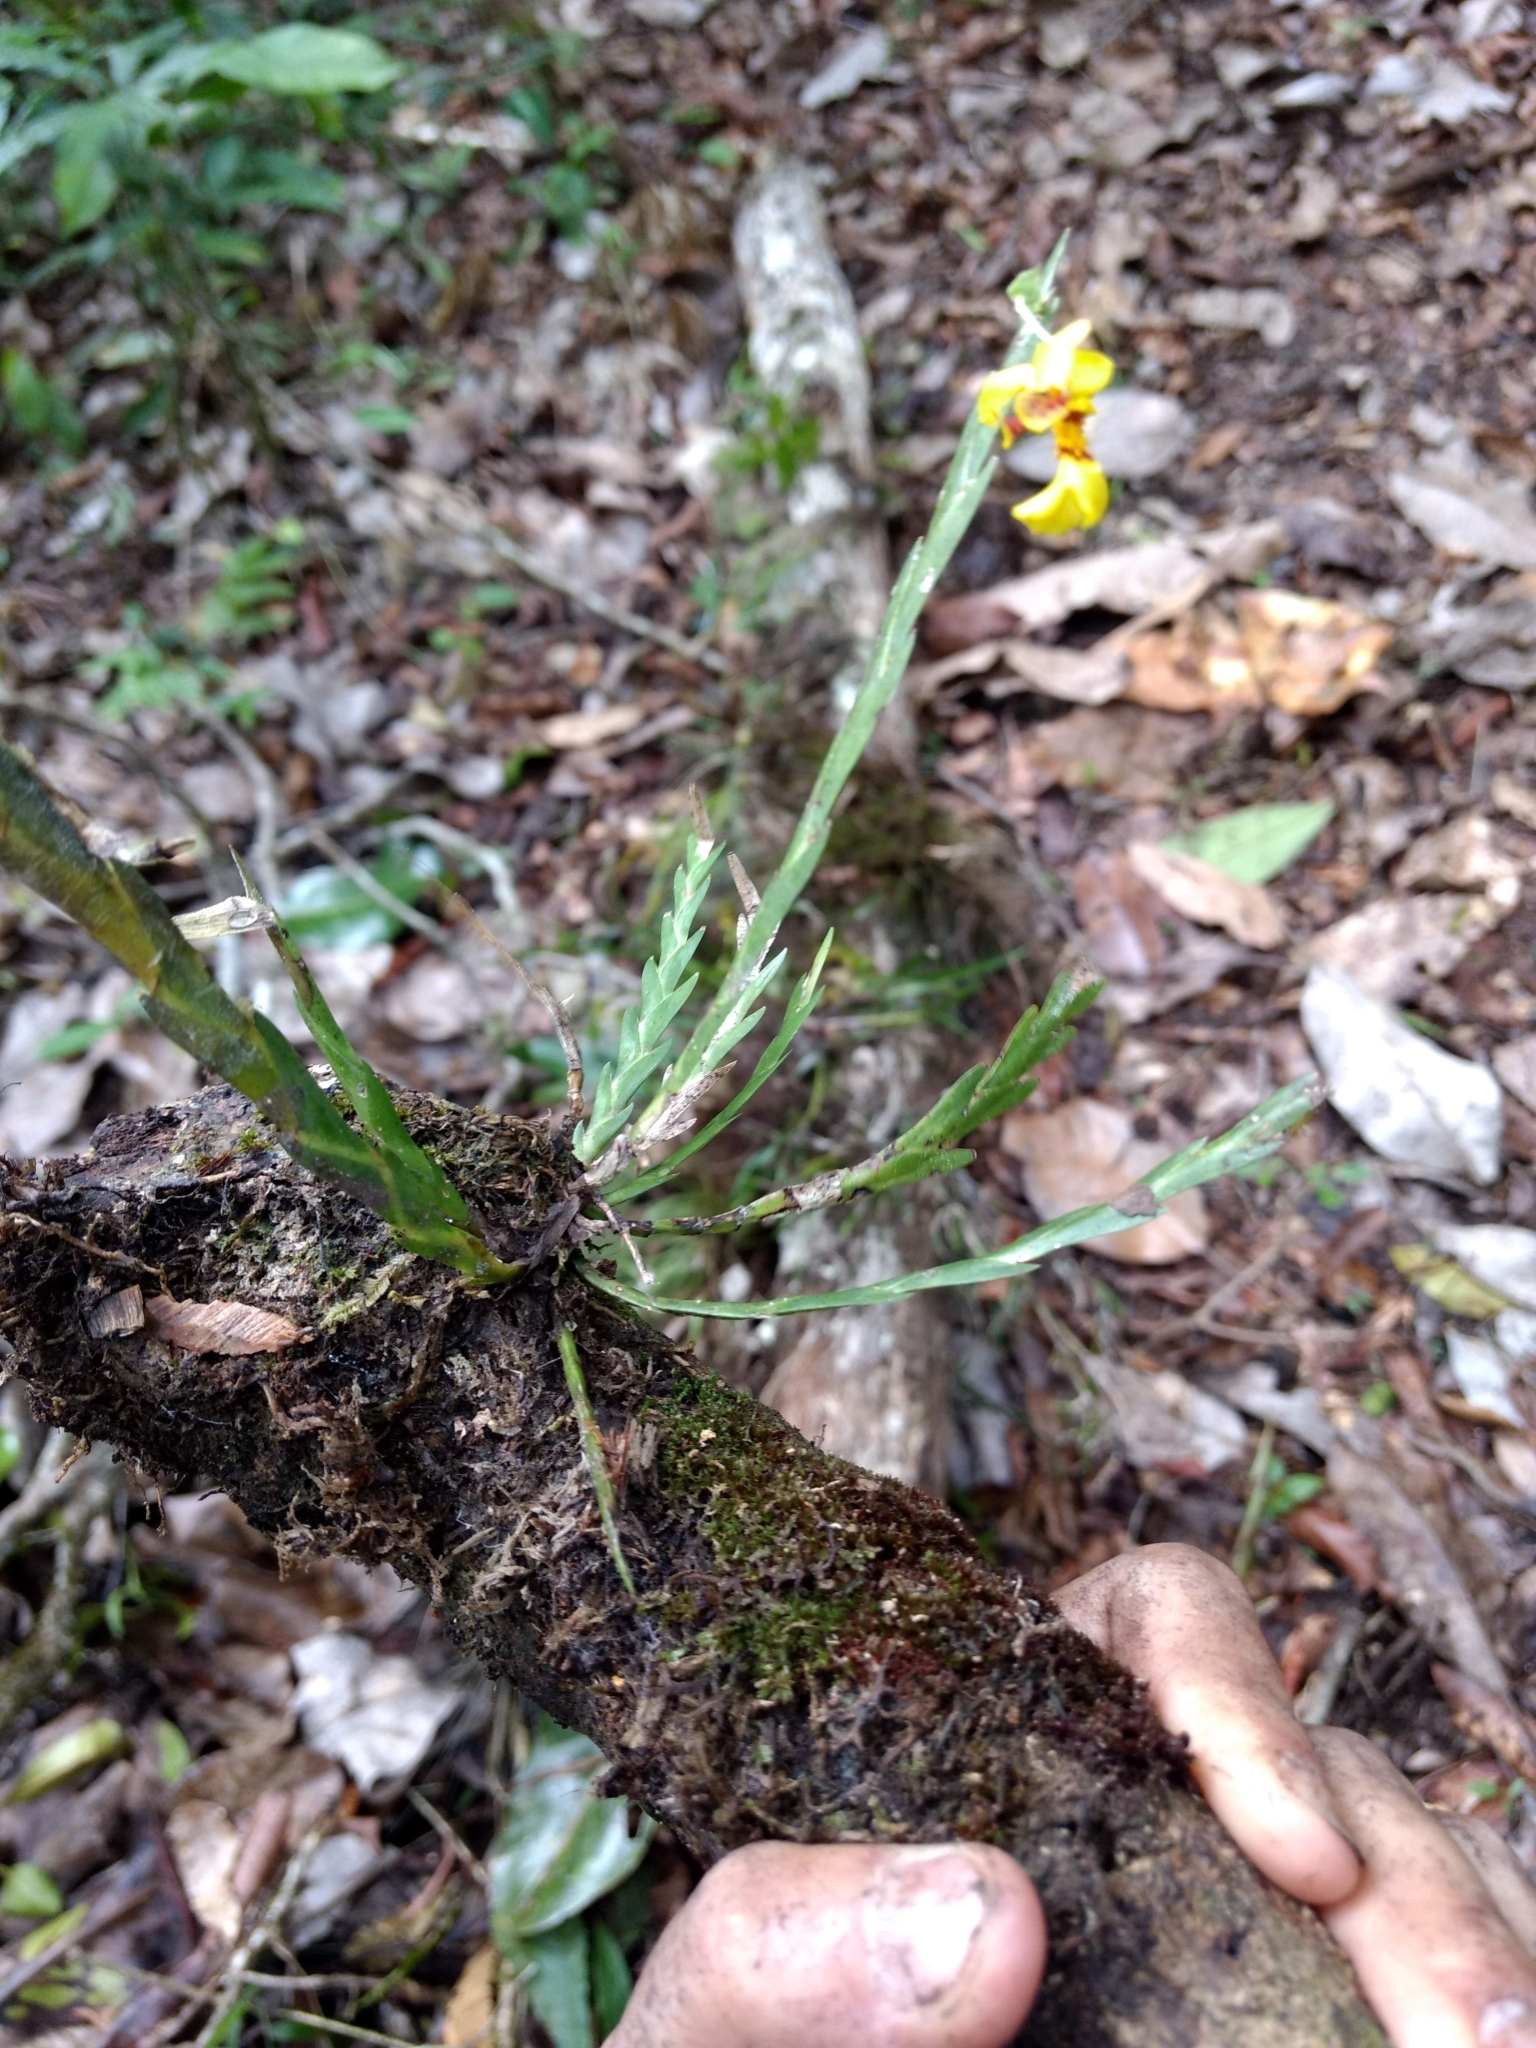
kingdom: Plantae
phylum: Tracheophyta
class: Liliopsida
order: Asparagales
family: Orchidaceae
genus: Lockhartia
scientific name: Lockhartia oerstedii
